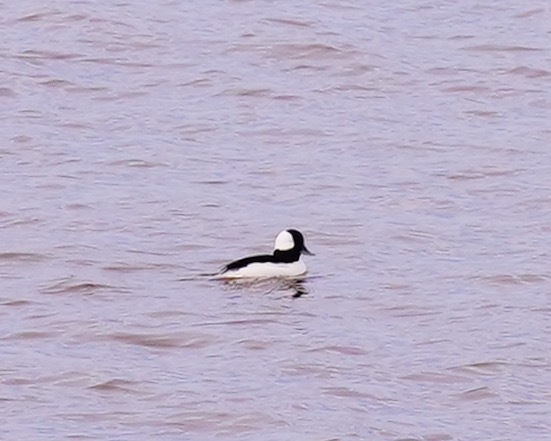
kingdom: Animalia
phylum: Chordata
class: Aves
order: Anseriformes
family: Anatidae
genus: Bucephala
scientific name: Bucephala albeola
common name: Bufflehead
